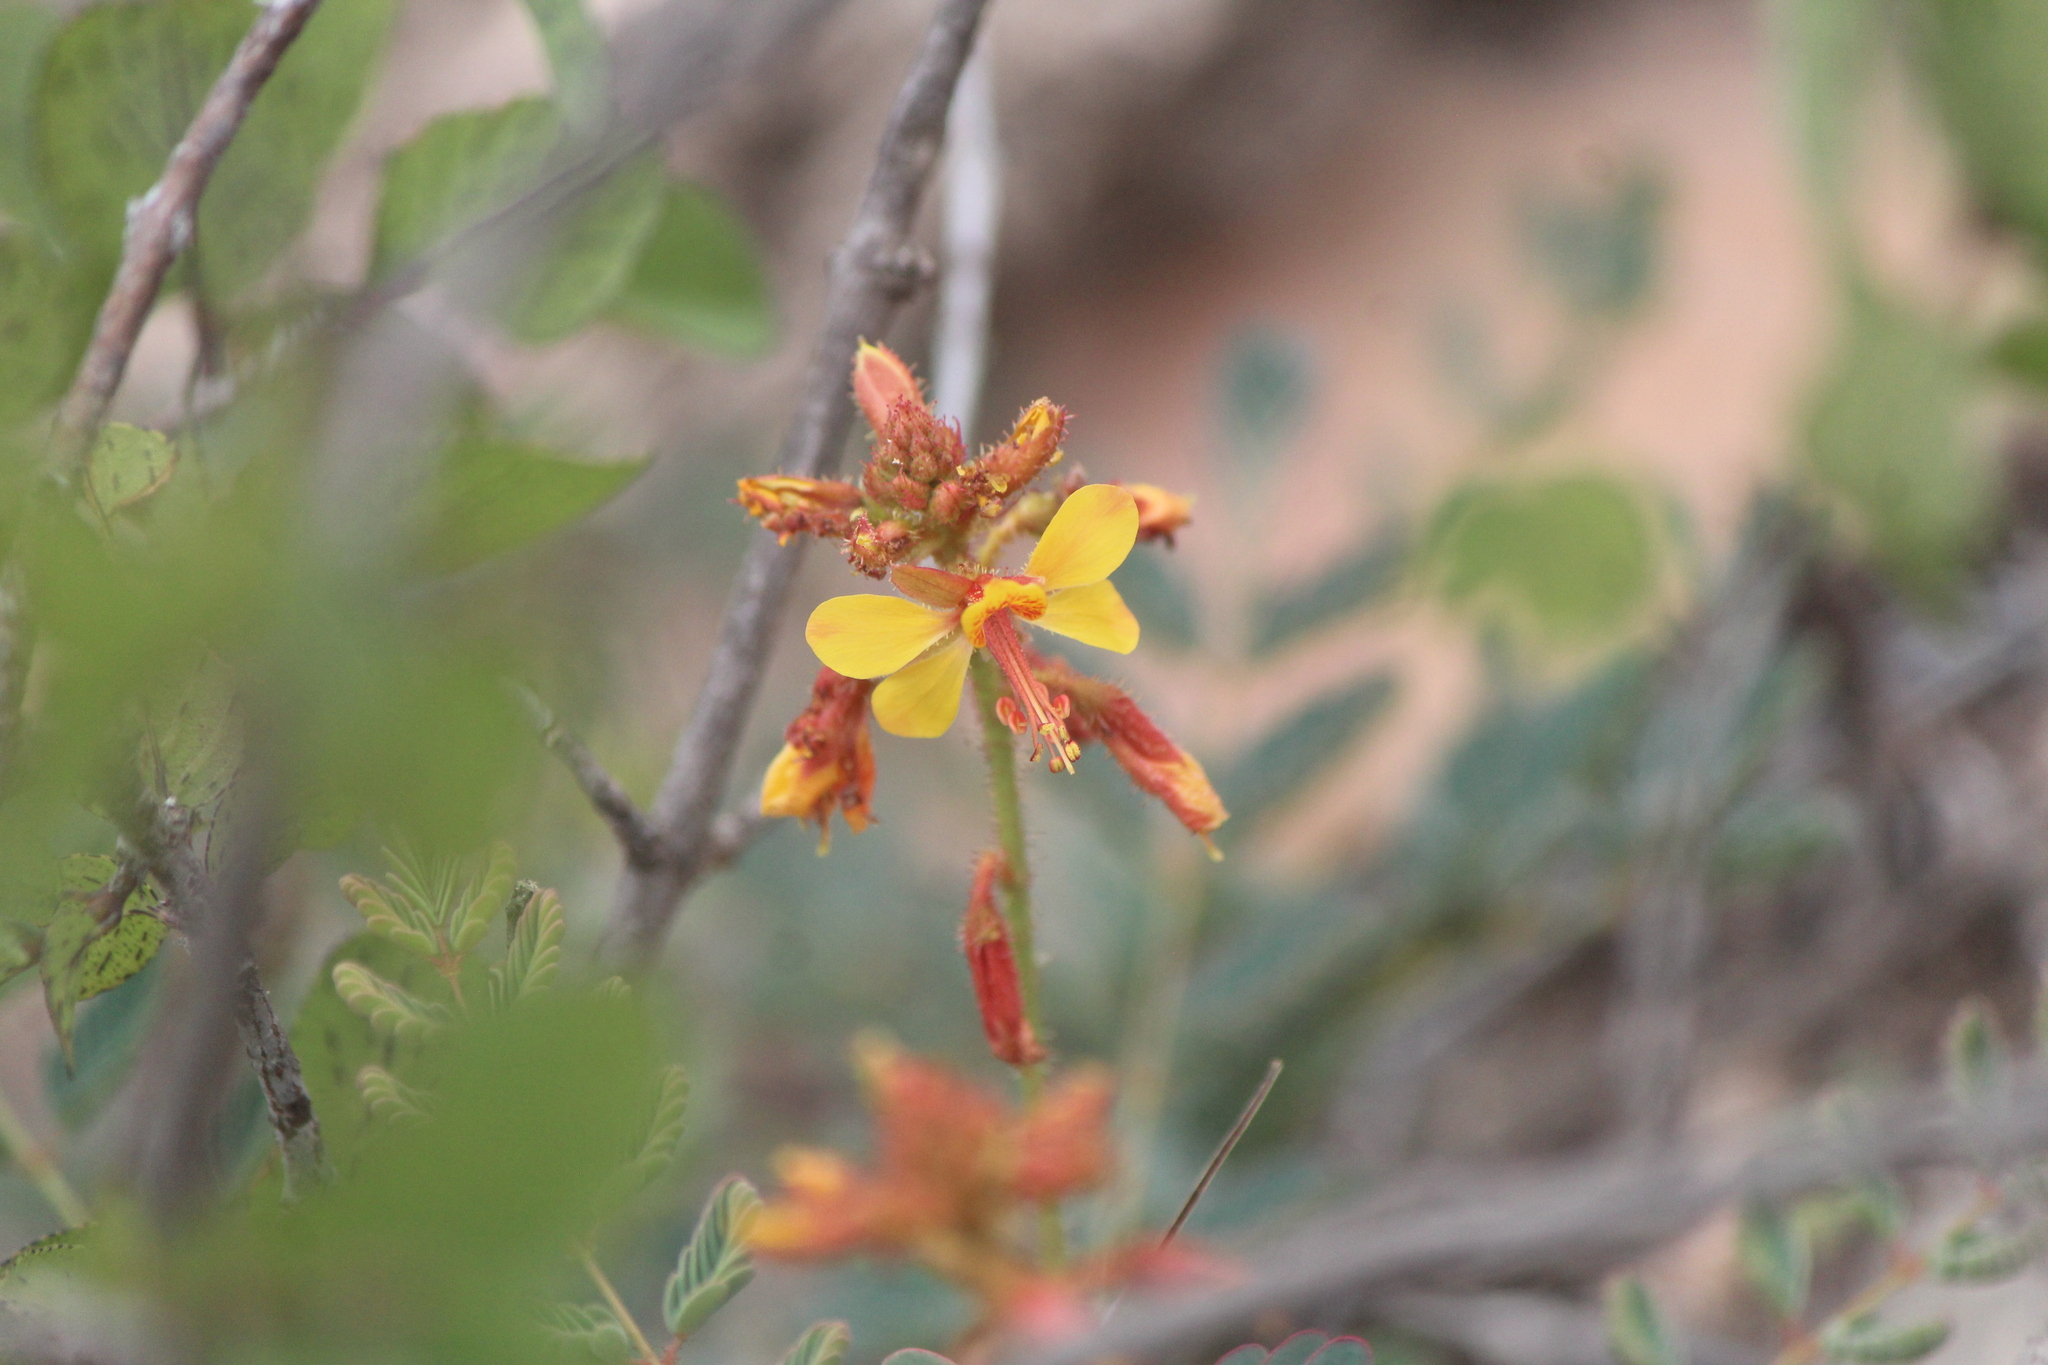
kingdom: Plantae
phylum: Tracheophyta
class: Magnoliopsida
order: Fabales
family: Fabaceae
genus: Hoffmannseggia
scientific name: Hoffmannseggia humilis
